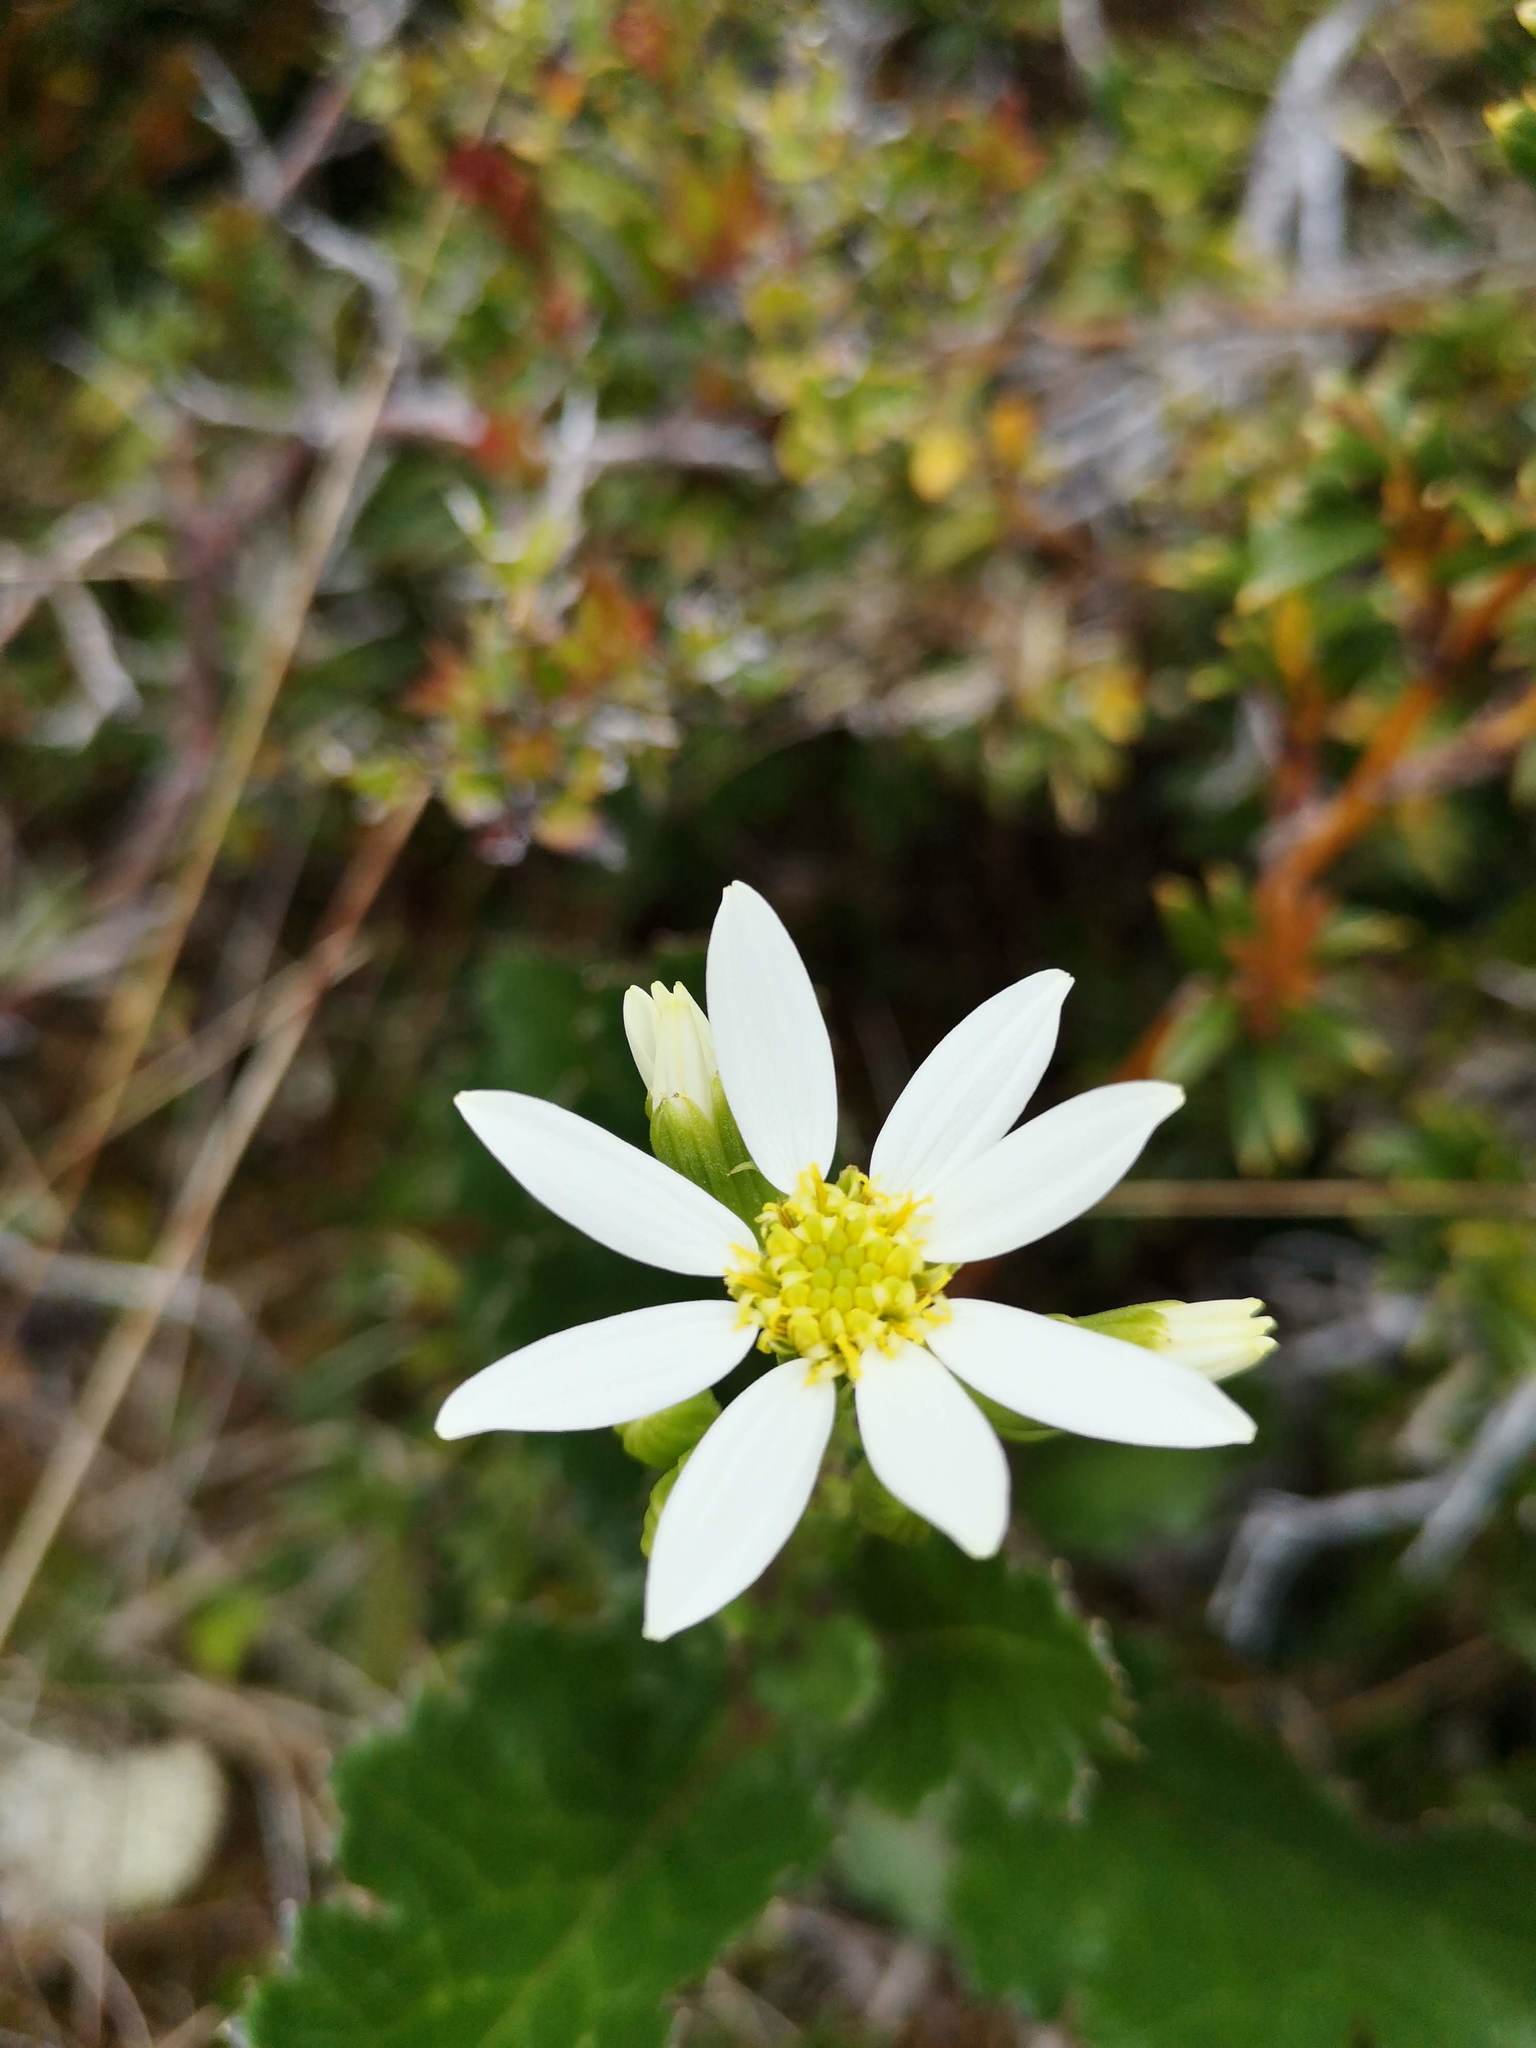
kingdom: Plantae
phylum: Tracheophyta
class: Magnoliopsida
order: Asterales
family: Asteraceae
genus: Iocenes
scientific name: Iocenes virens
